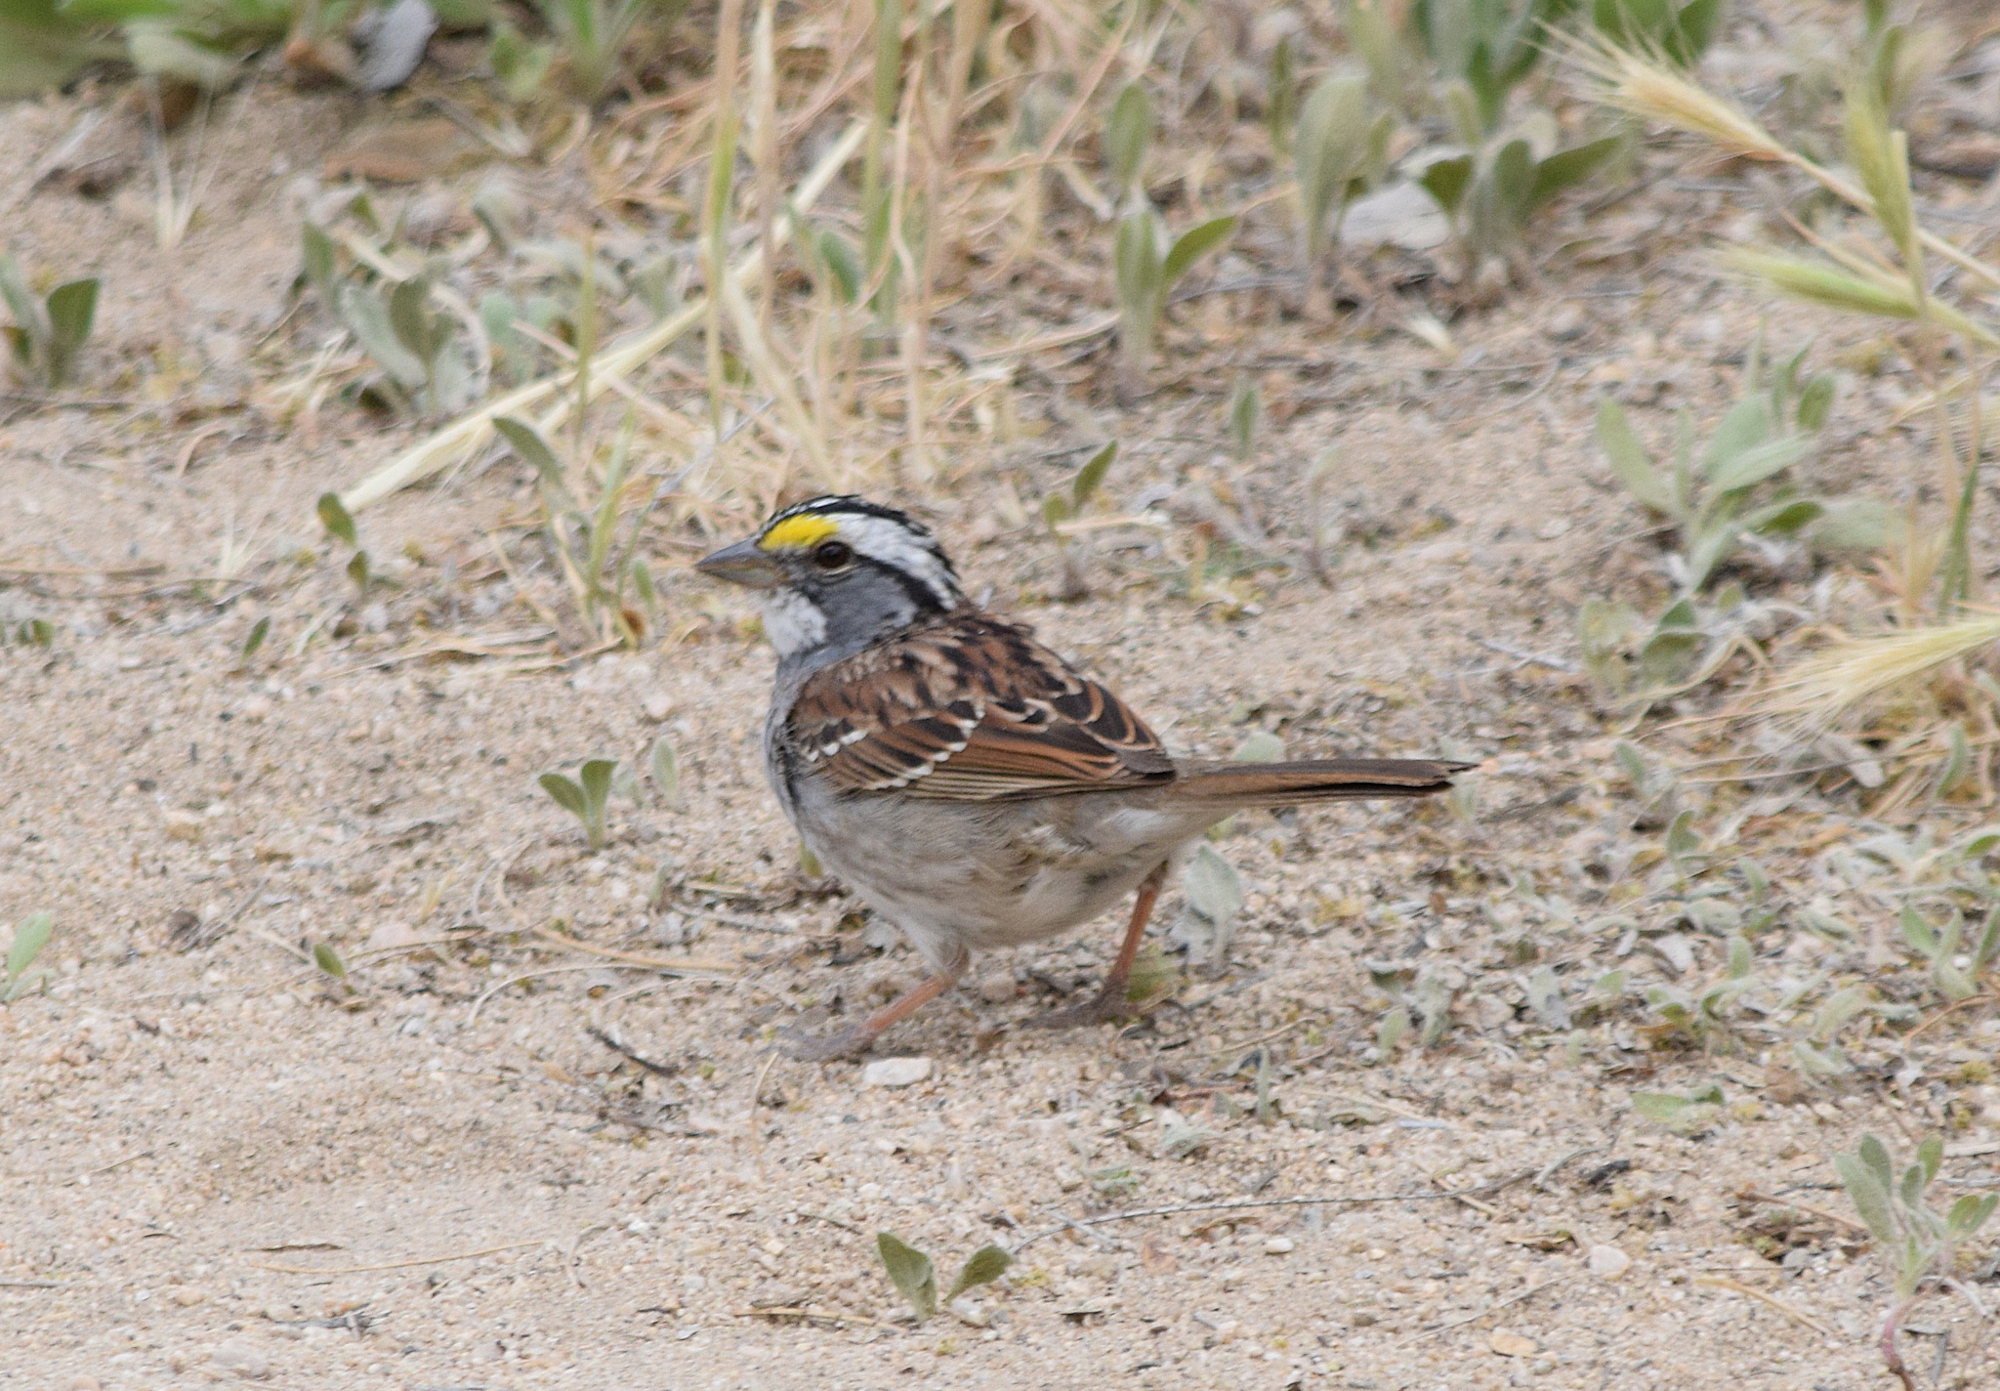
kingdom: Animalia
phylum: Chordata
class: Aves
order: Passeriformes
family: Passerellidae
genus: Zonotrichia
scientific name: Zonotrichia albicollis
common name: White-throated sparrow
